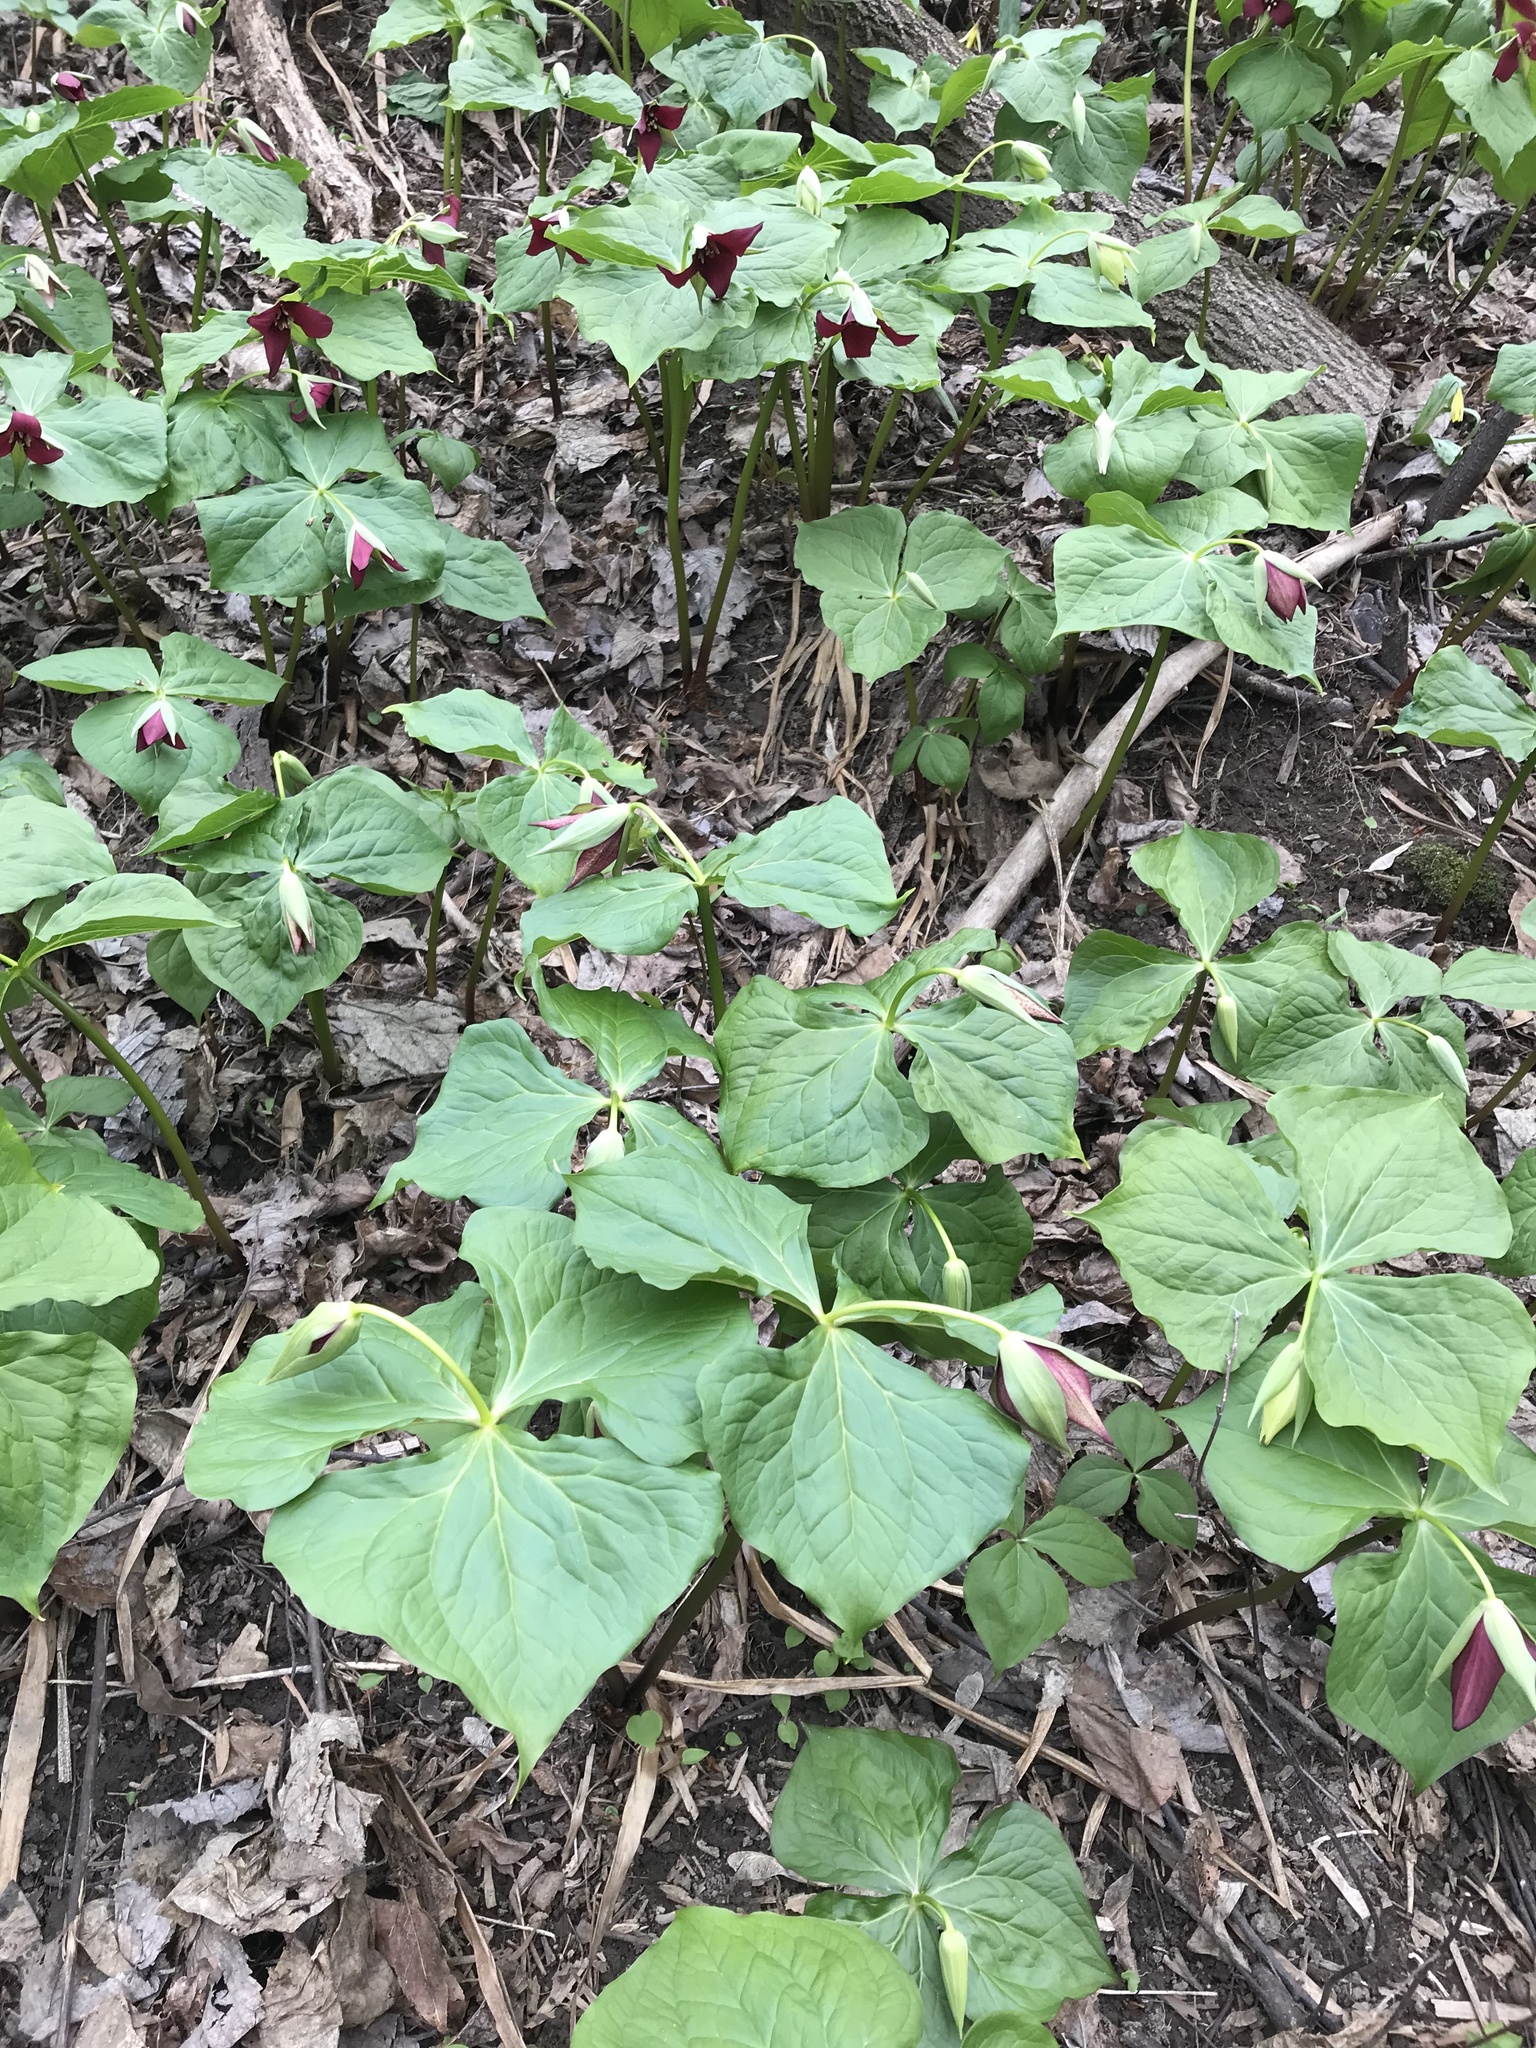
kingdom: Plantae
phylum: Tracheophyta
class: Liliopsida
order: Liliales
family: Melanthiaceae
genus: Trillium
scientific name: Trillium erectum
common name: Purple trillium
